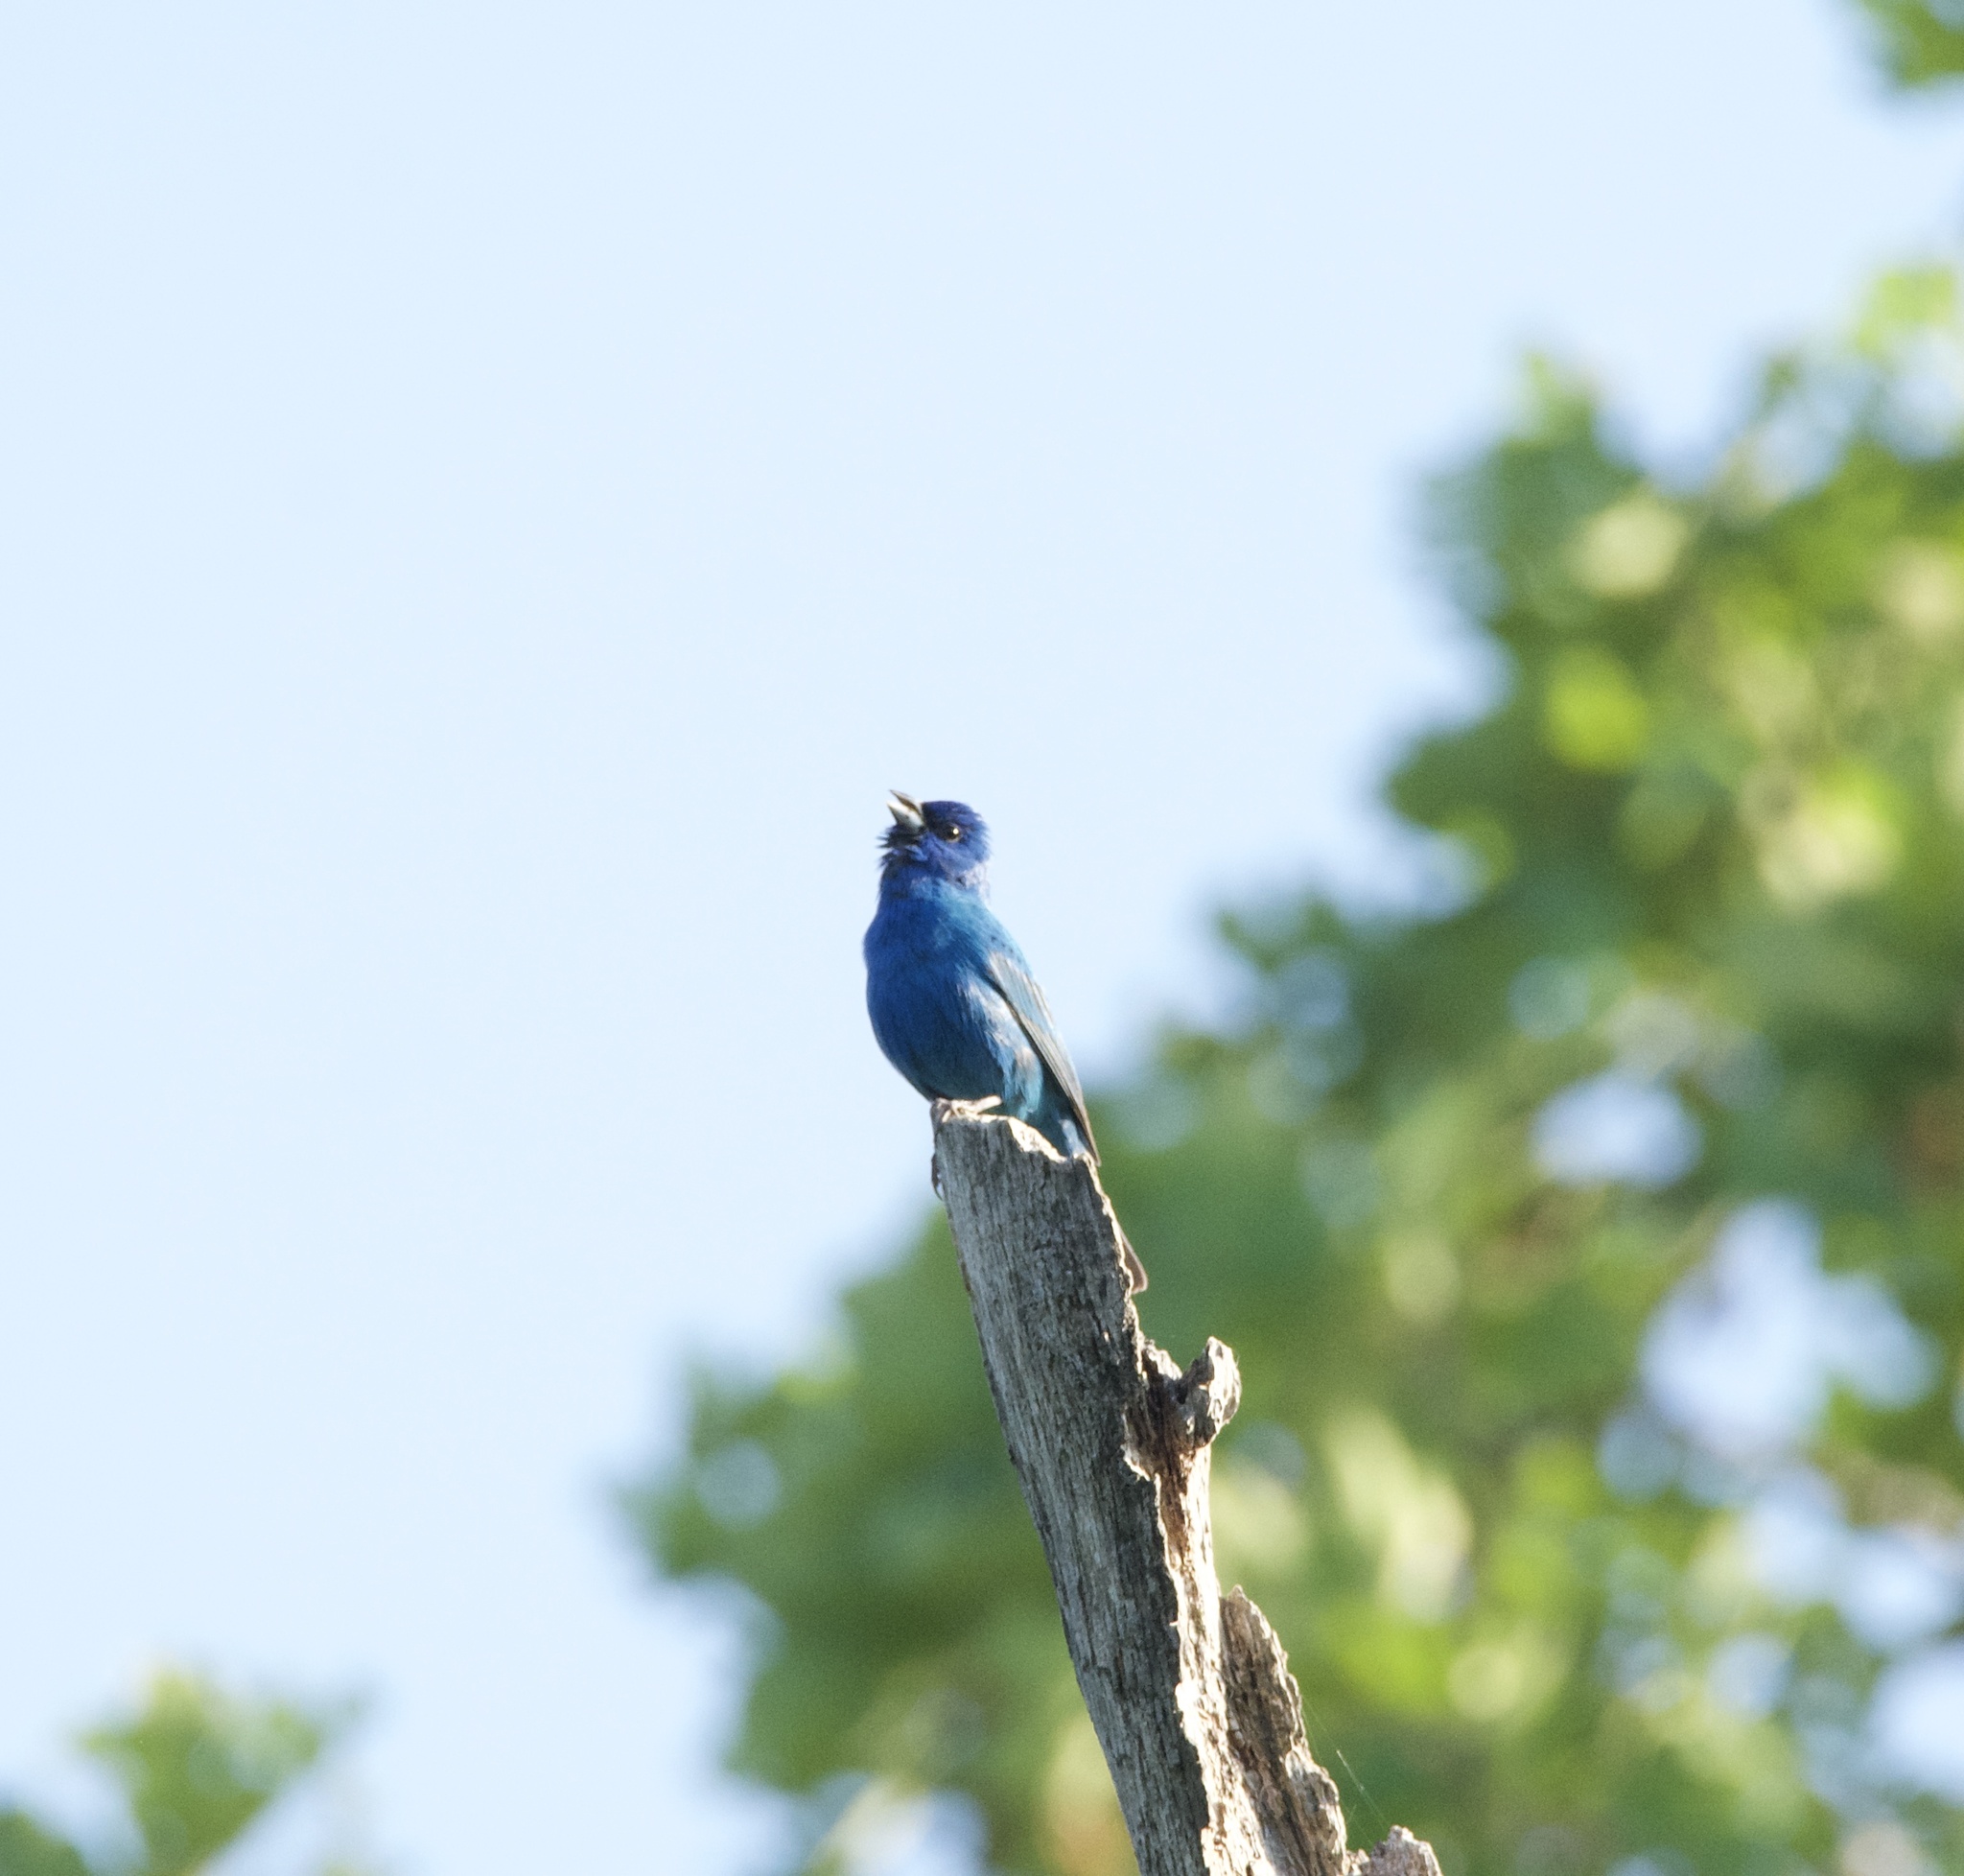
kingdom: Animalia
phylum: Chordata
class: Aves
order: Passeriformes
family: Cardinalidae
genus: Passerina
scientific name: Passerina cyanea
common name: Indigo bunting
